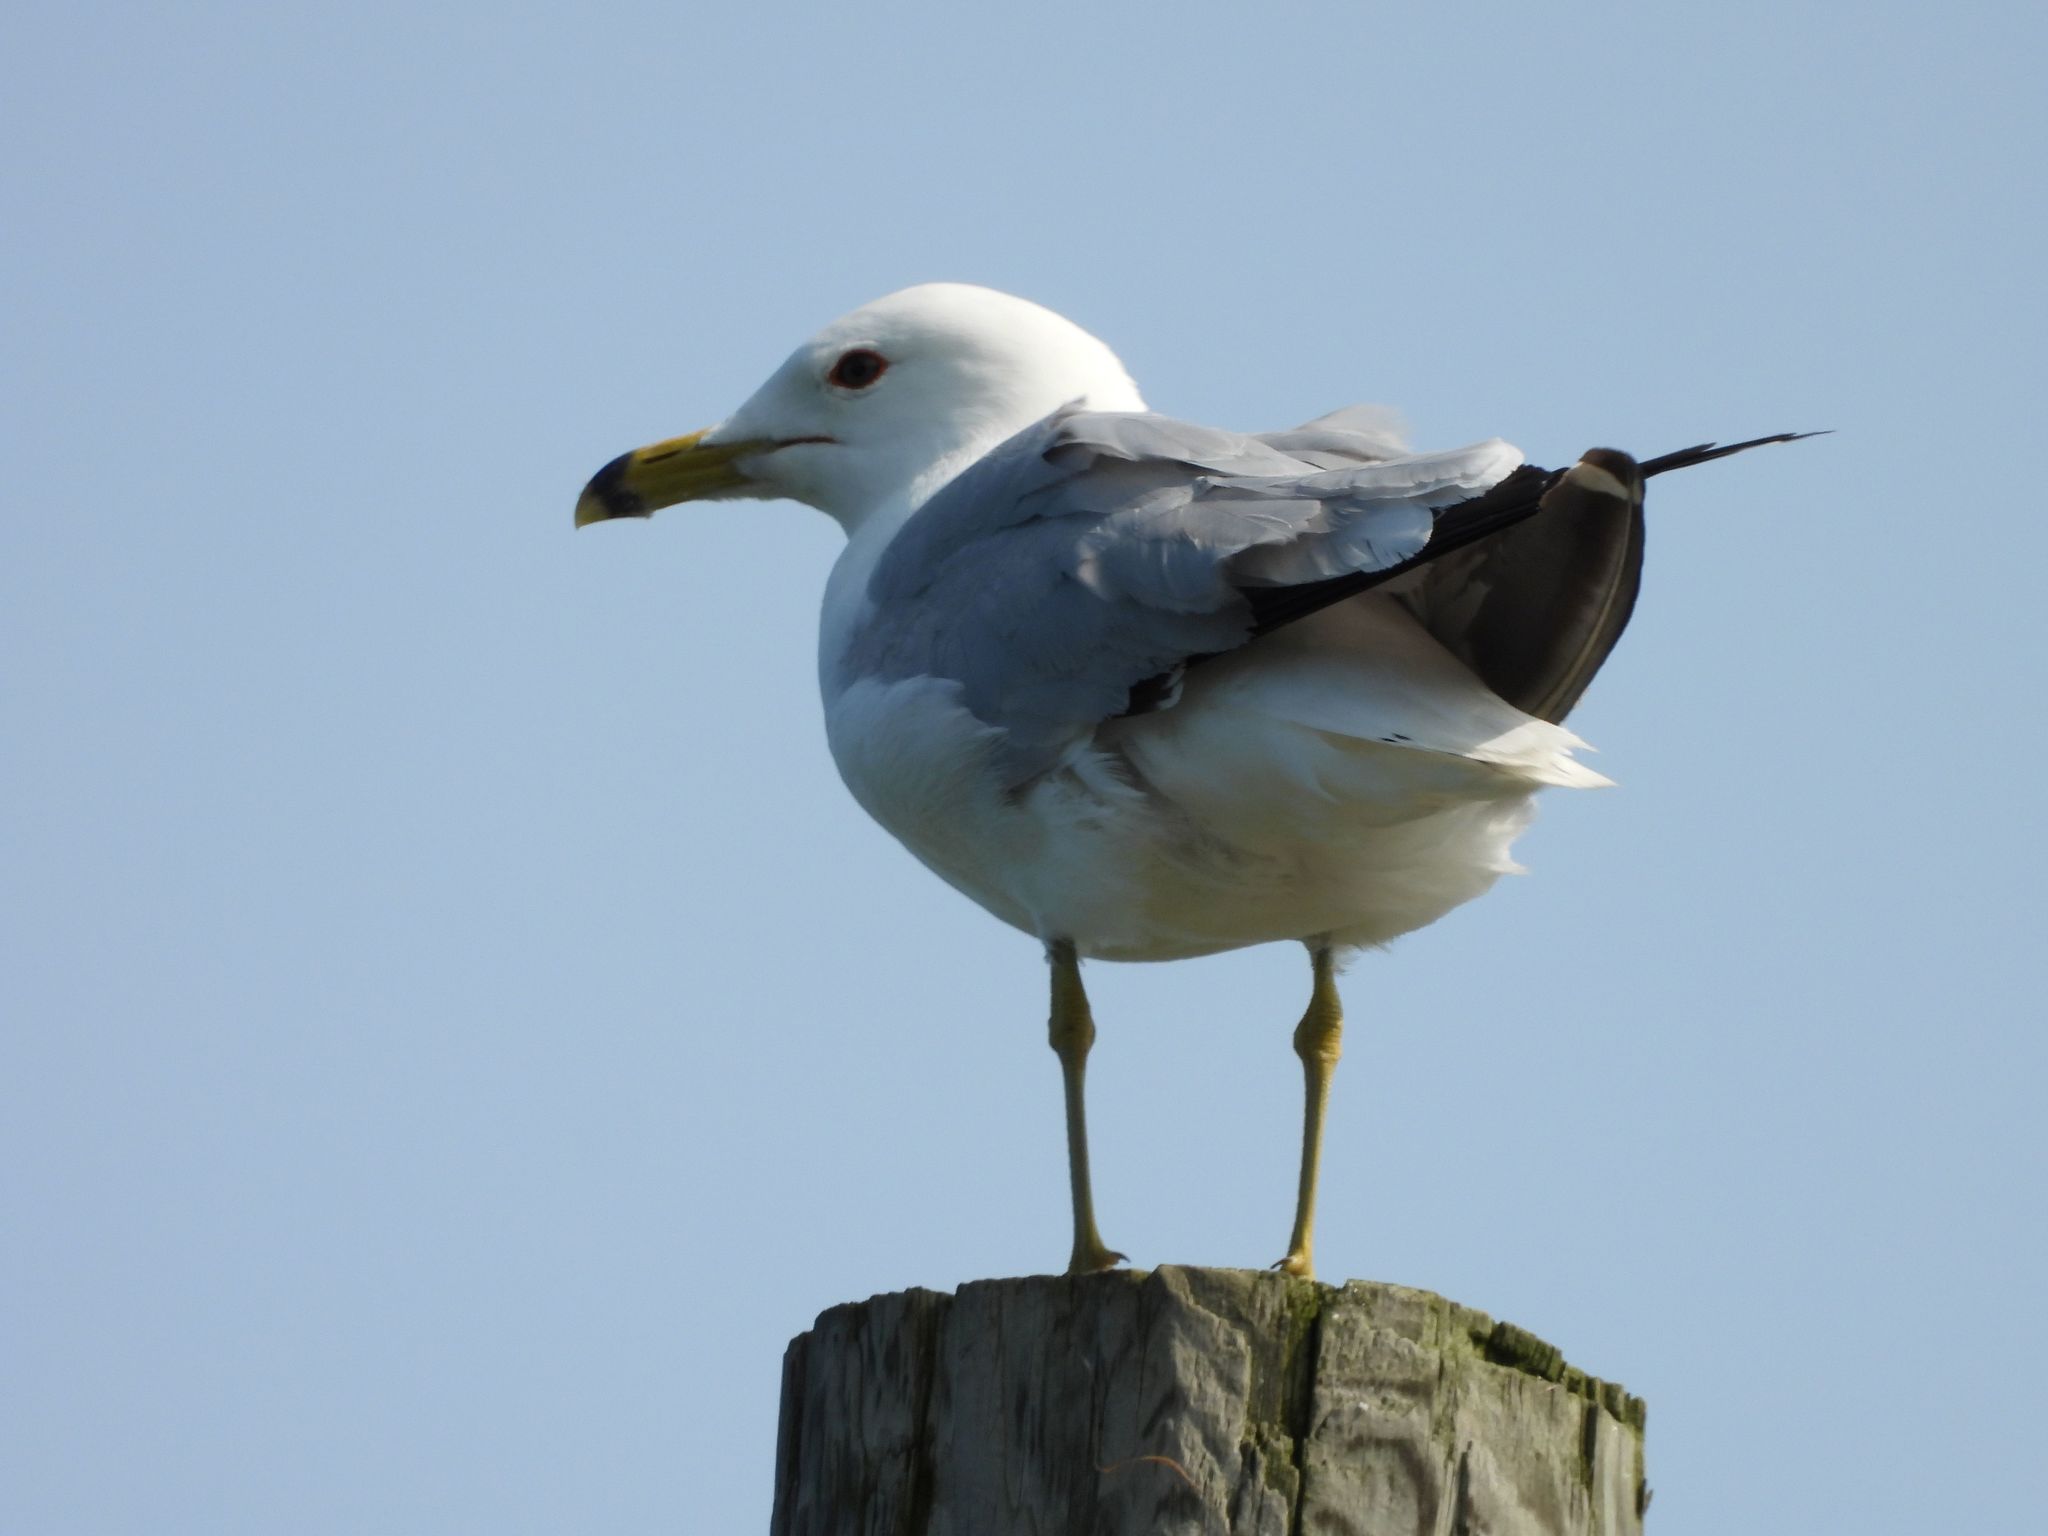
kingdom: Animalia
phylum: Chordata
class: Aves
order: Charadriiformes
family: Laridae
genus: Larus
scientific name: Larus delawarensis
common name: Ring-billed gull
